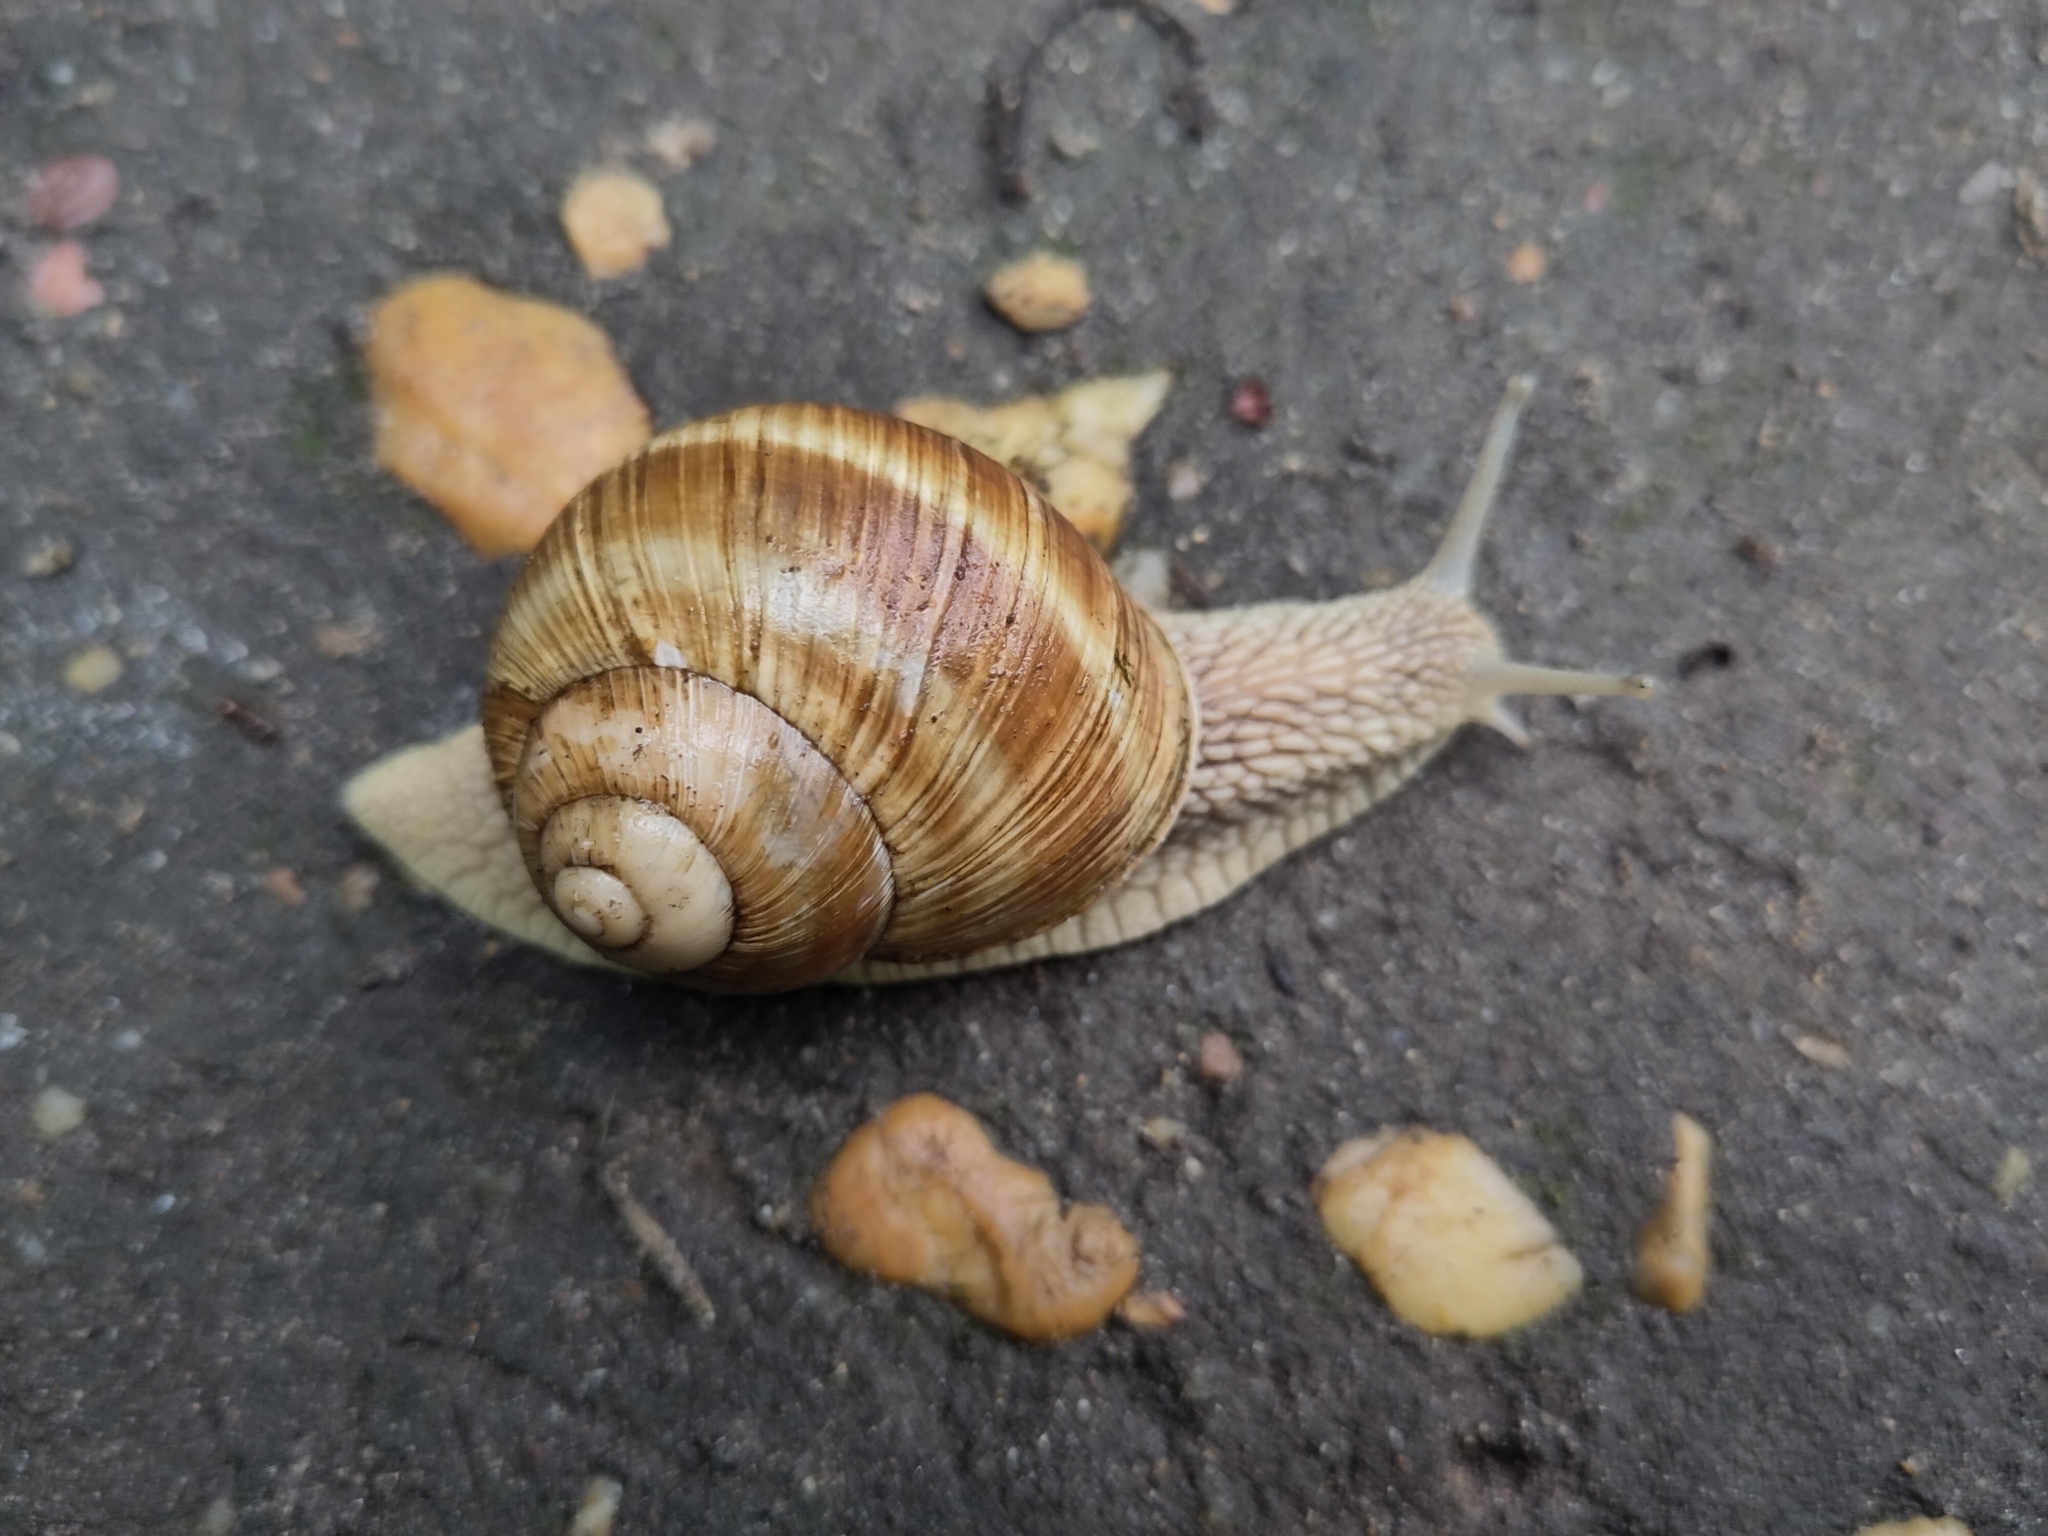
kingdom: Animalia
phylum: Mollusca
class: Gastropoda
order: Stylommatophora
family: Helicidae
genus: Helix
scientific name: Helix pomatia
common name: Roman snail
